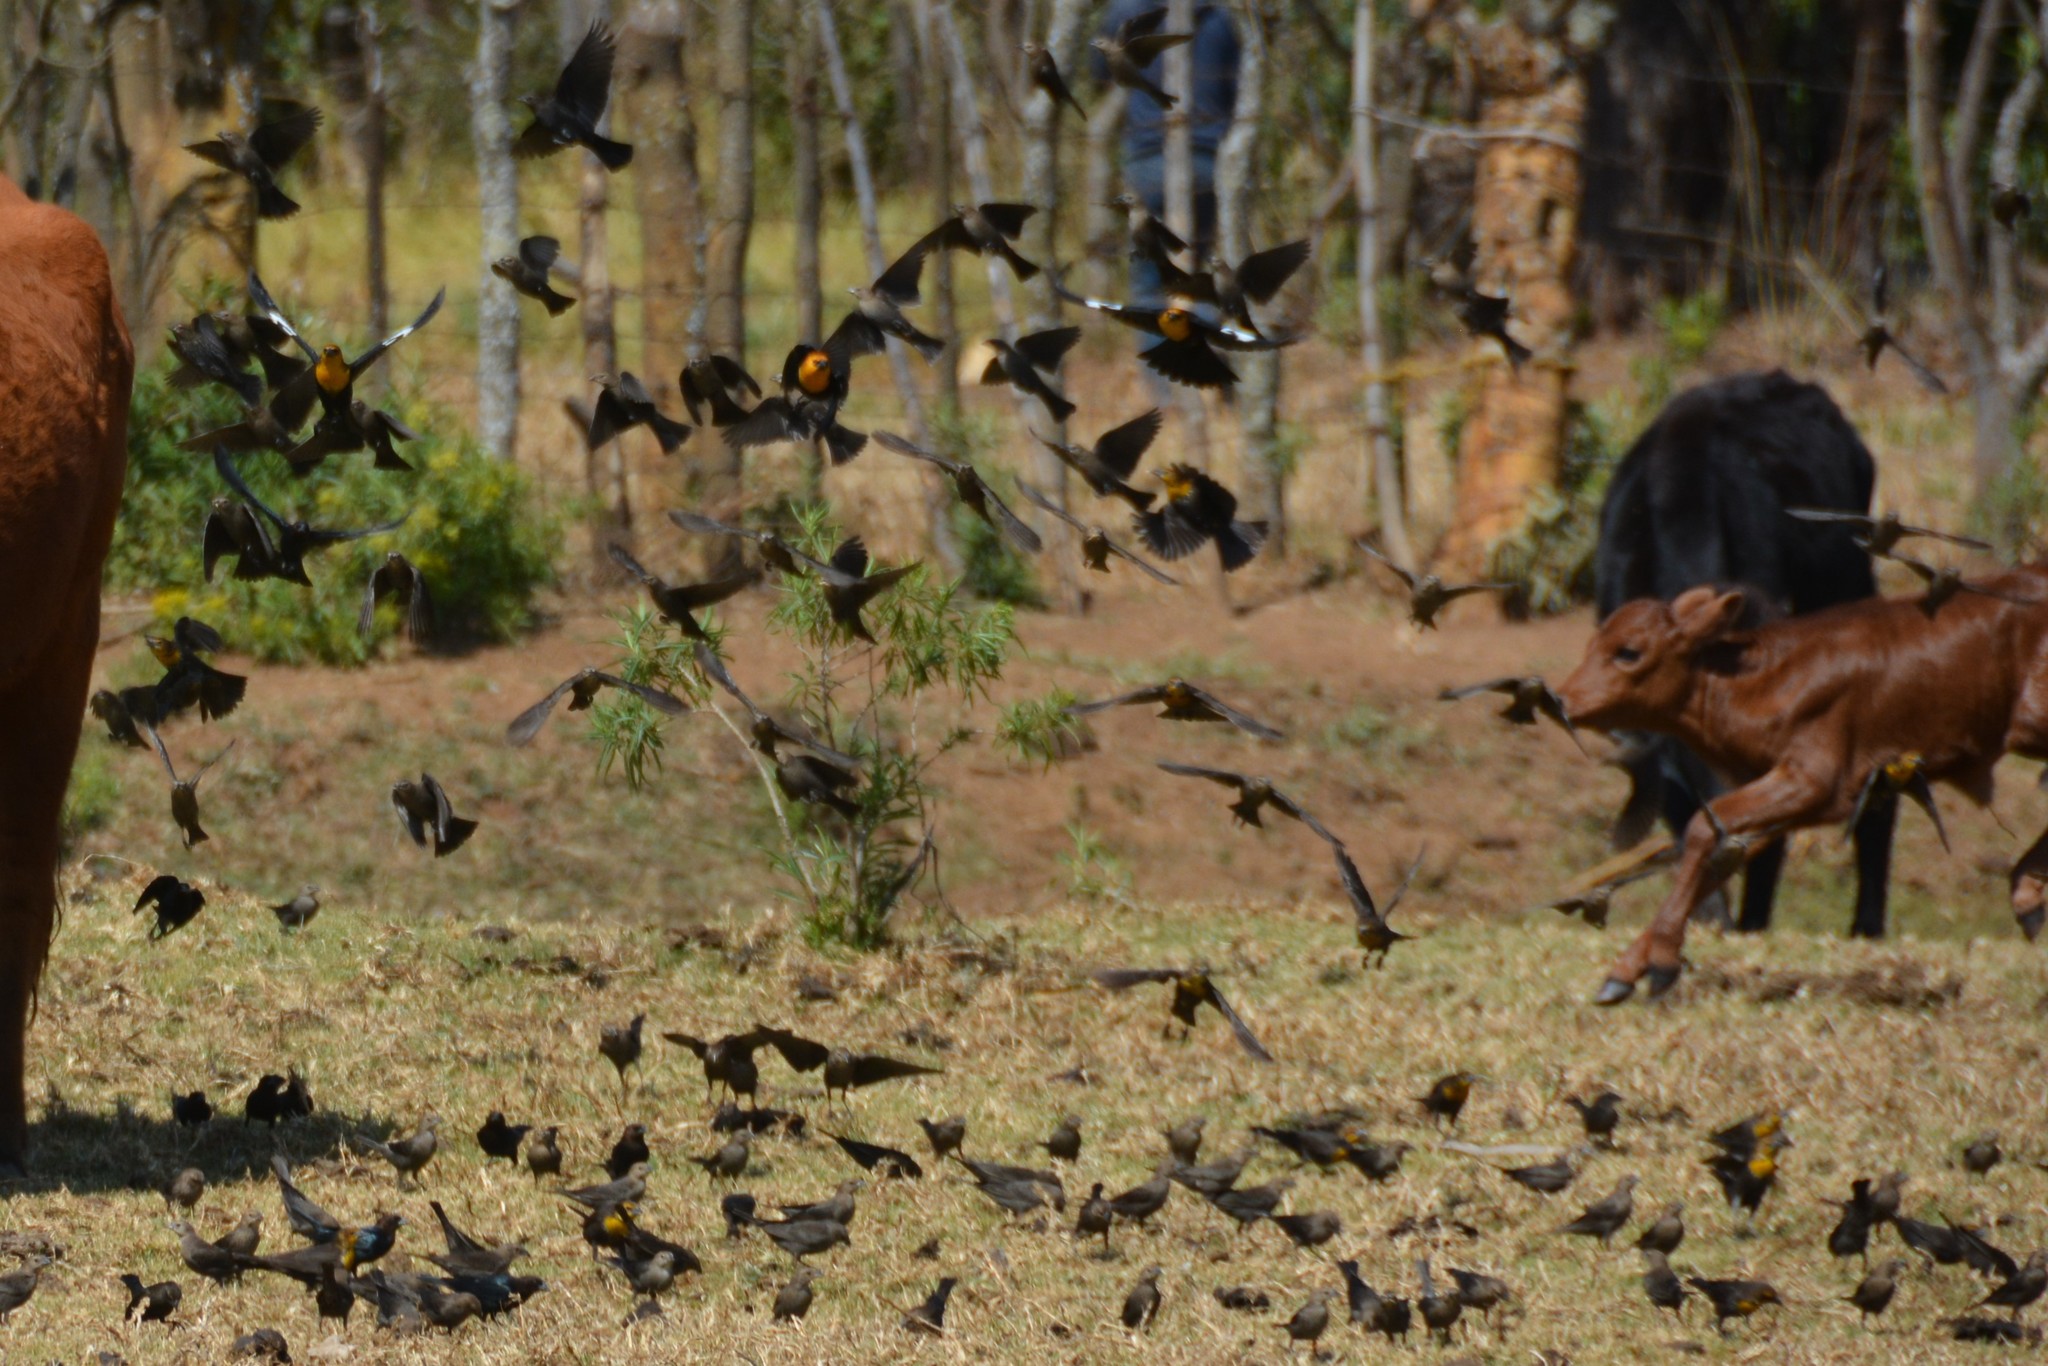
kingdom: Animalia
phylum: Chordata
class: Aves
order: Passeriformes
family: Icteridae
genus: Xanthocephalus
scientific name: Xanthocephalus xanthocephalus
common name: Yellow-headed blackbird
